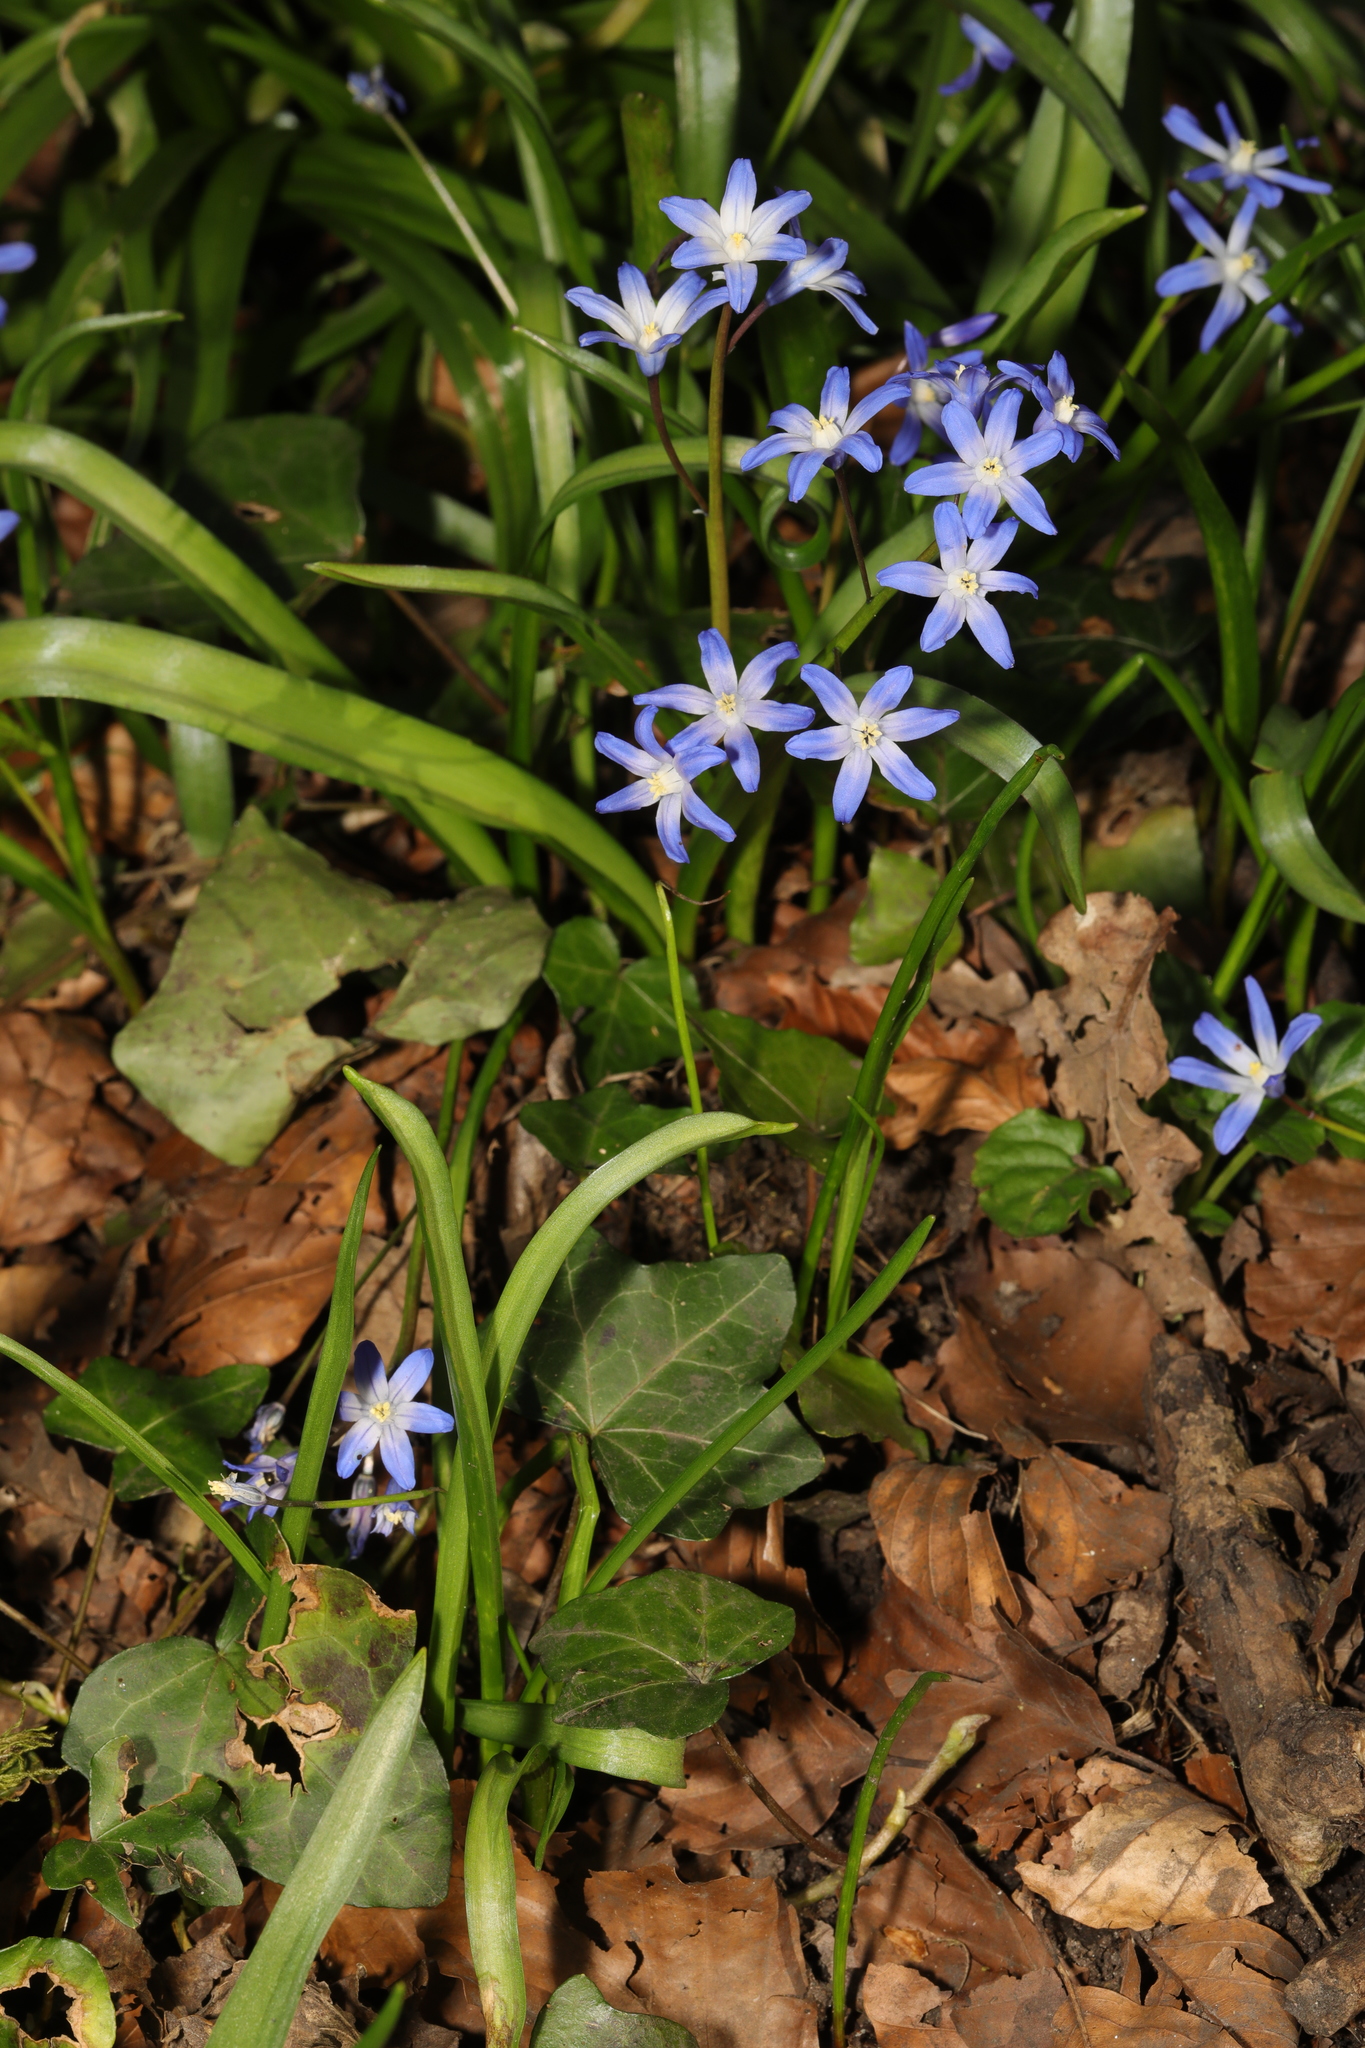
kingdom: Plantae
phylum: Tracheophyta
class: Liliopsida
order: Asparagales
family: Asparagaceae
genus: Scilla
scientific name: Scilla forbesii
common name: Glory-of-the-snow
